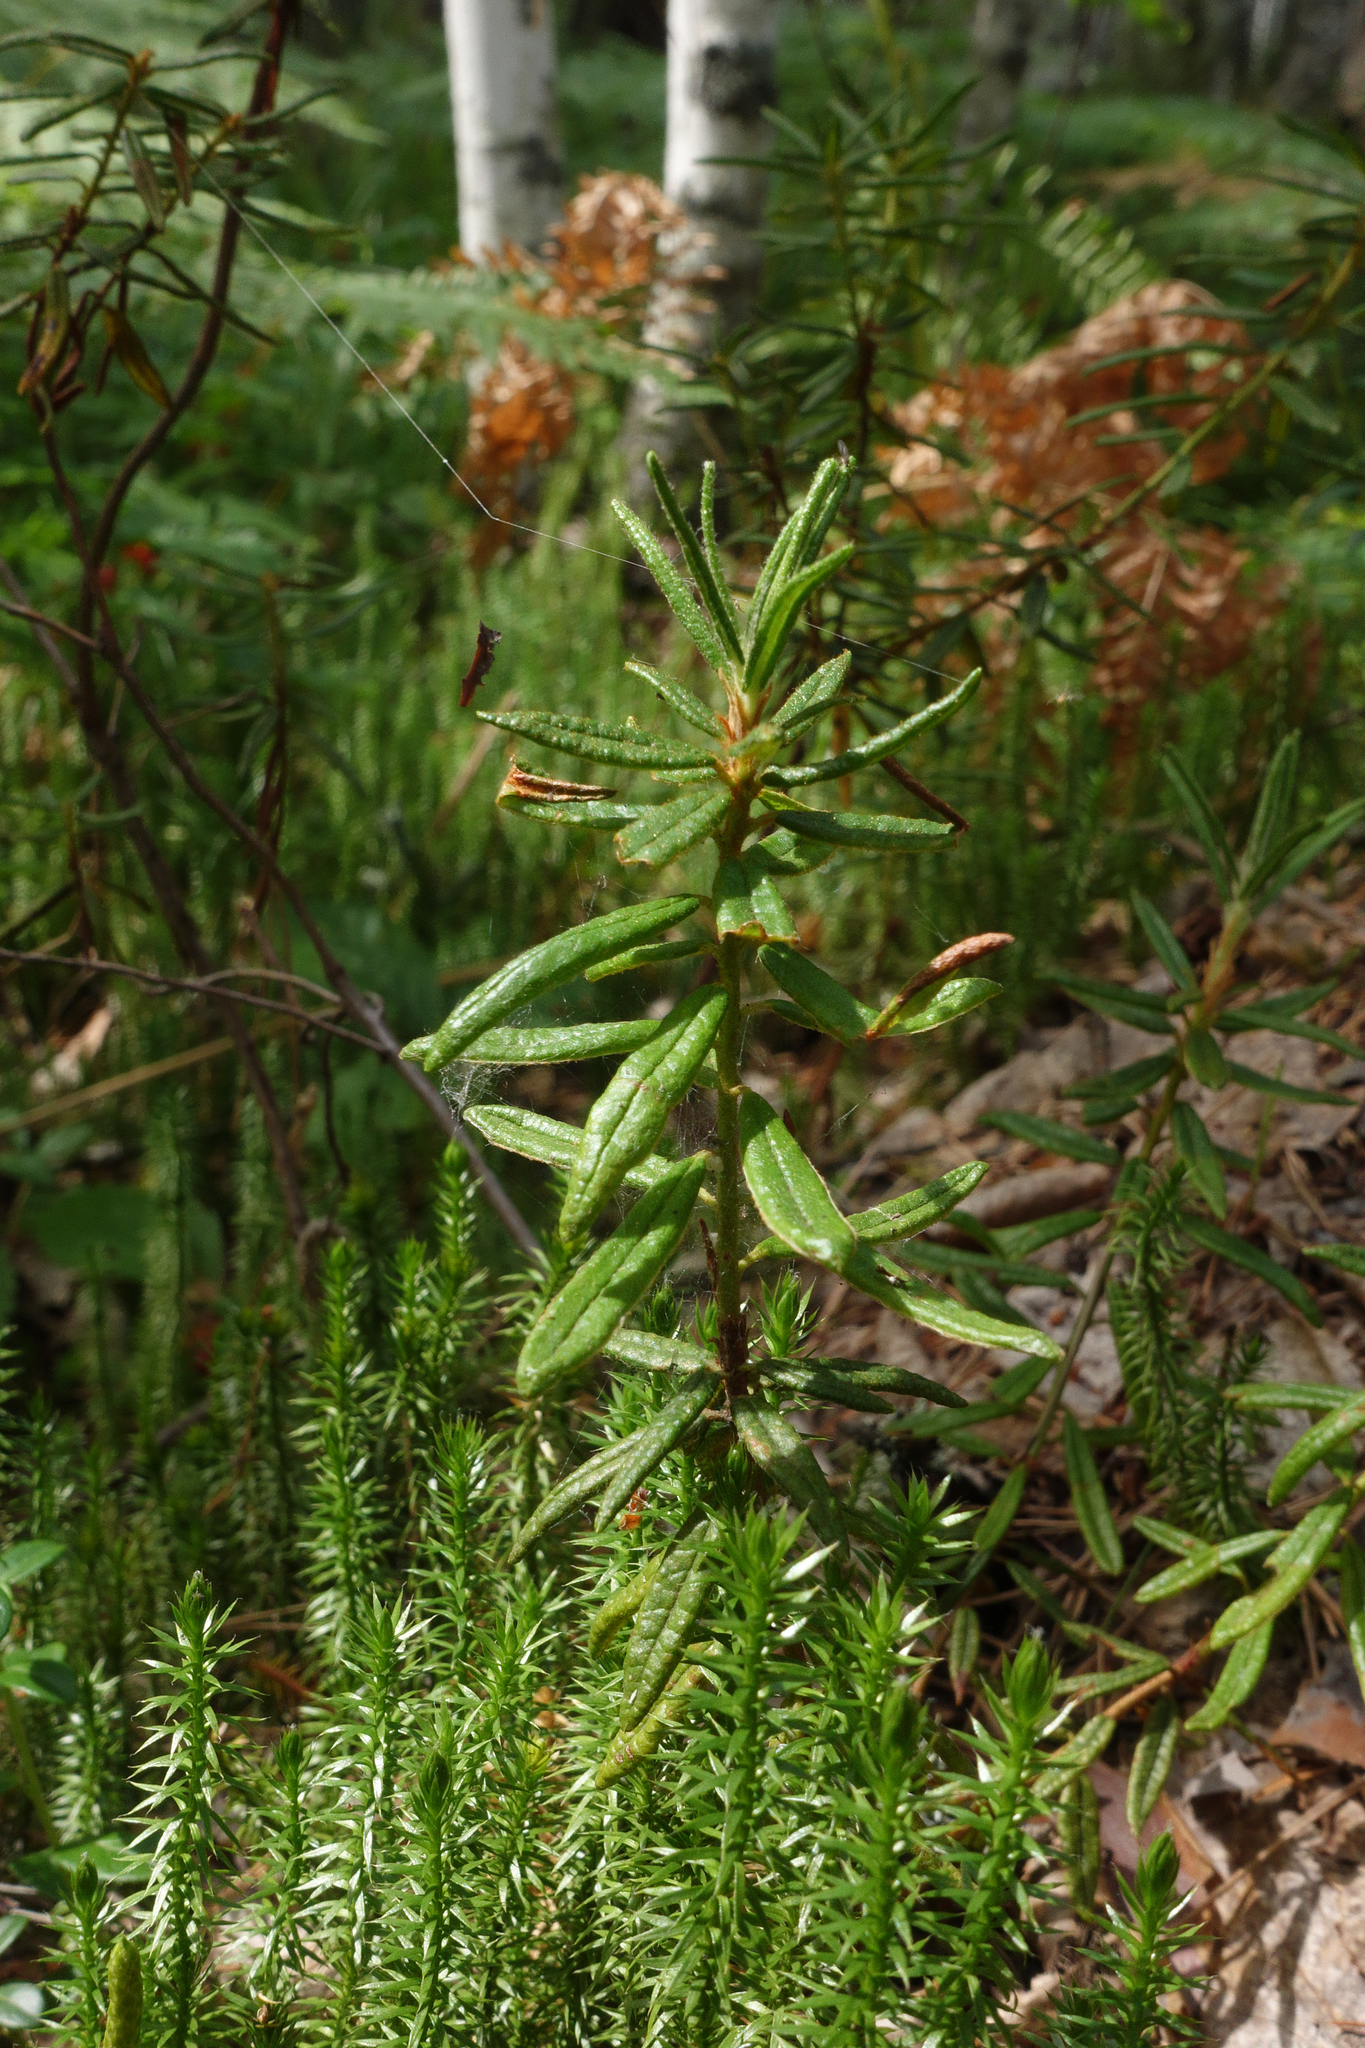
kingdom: Plantae
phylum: Tracheophyta
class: Magnoliopsida
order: Ericales
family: Ericaceae
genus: Rhododendron
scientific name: Rhododendron tomentosum
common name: Marsh labrador tea
